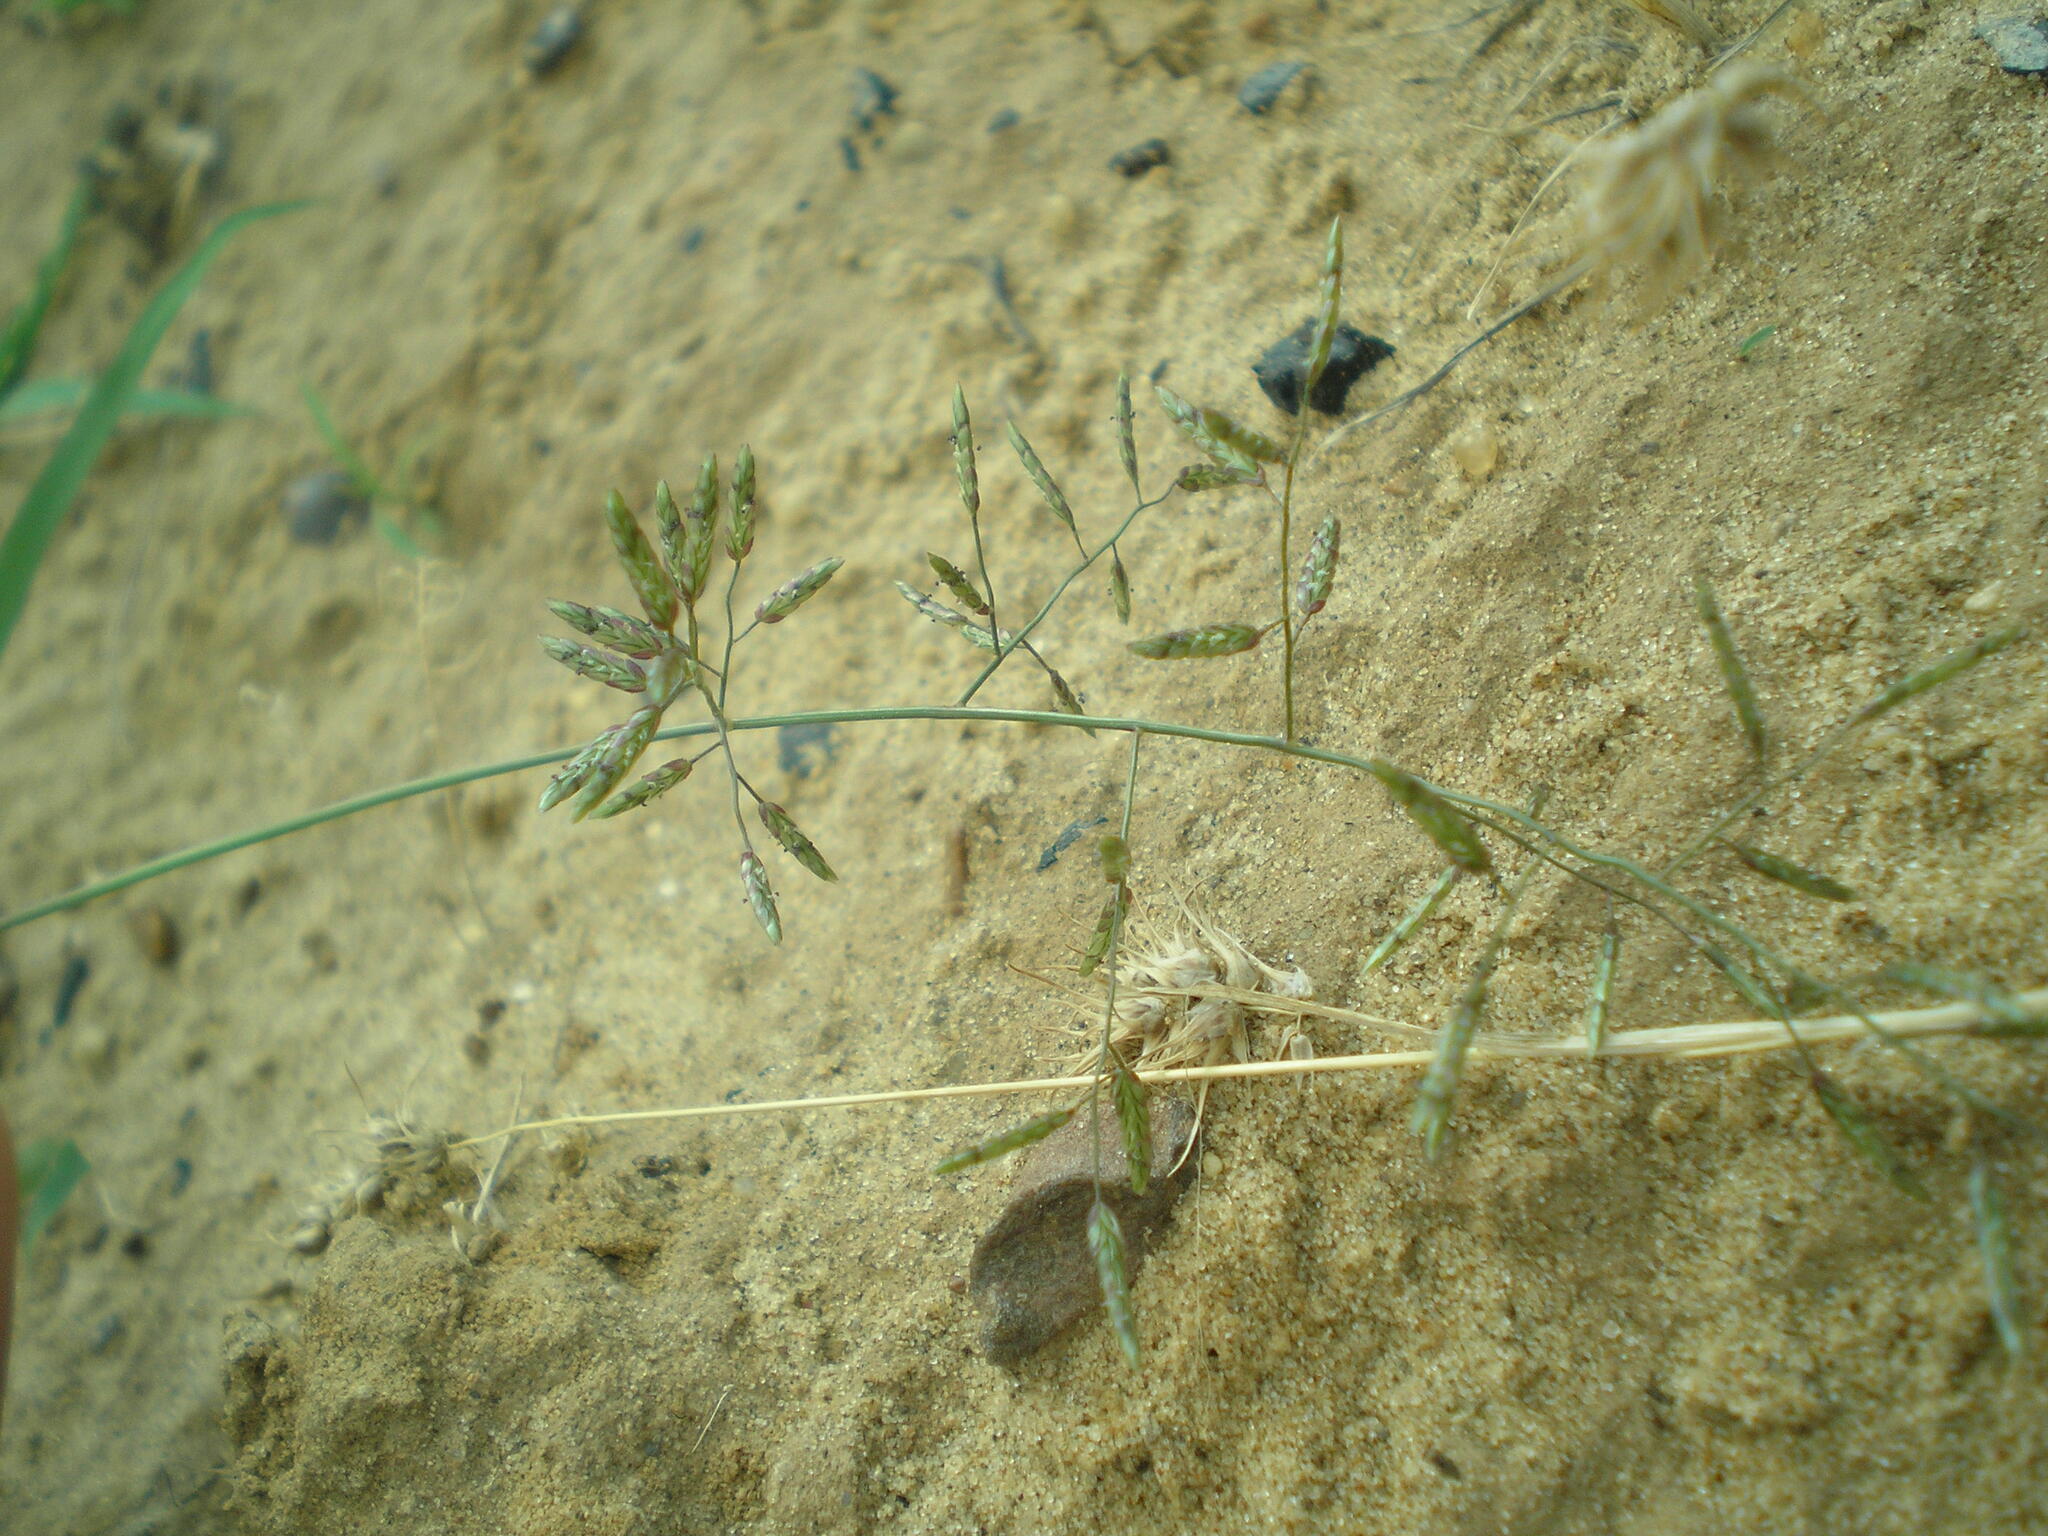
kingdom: Plantae
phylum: Tracheophyta
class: Liliopsida
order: Poales
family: Poaceae
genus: Eragrostis
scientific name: Eragrostis minor
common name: Small love-grass
